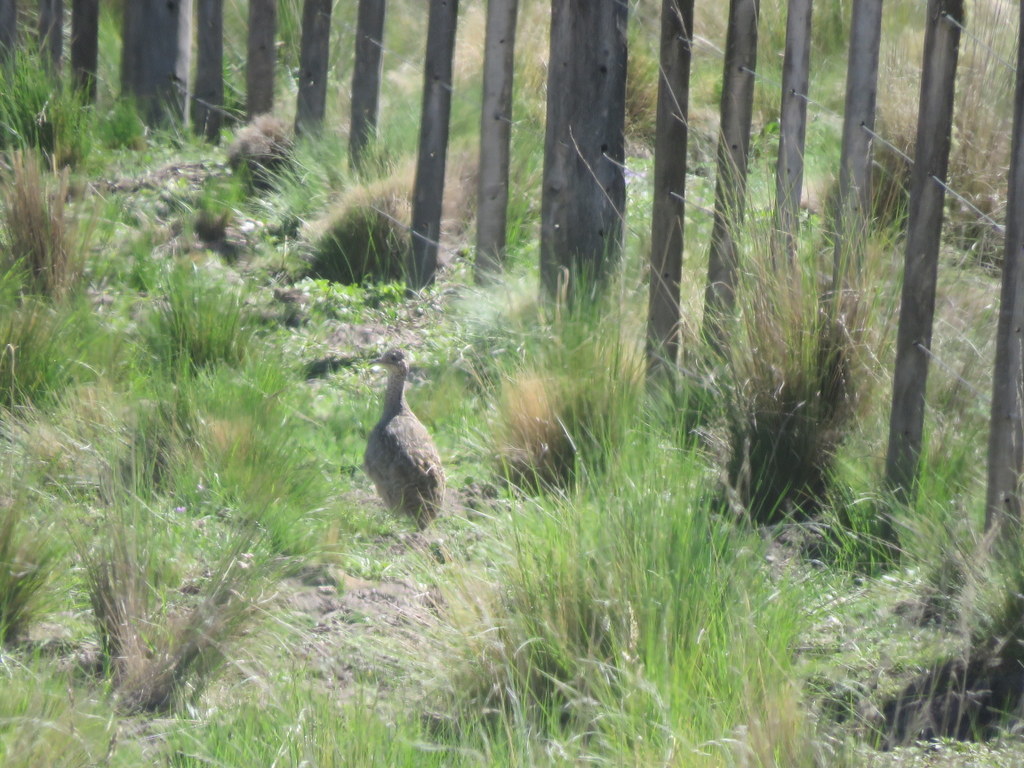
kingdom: Animalia
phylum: Chordata
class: Aves
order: Tinamiformes
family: Tinamidae
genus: Nothoprocta
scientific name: Nothoprocta ornata
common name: Ornate tinamou
